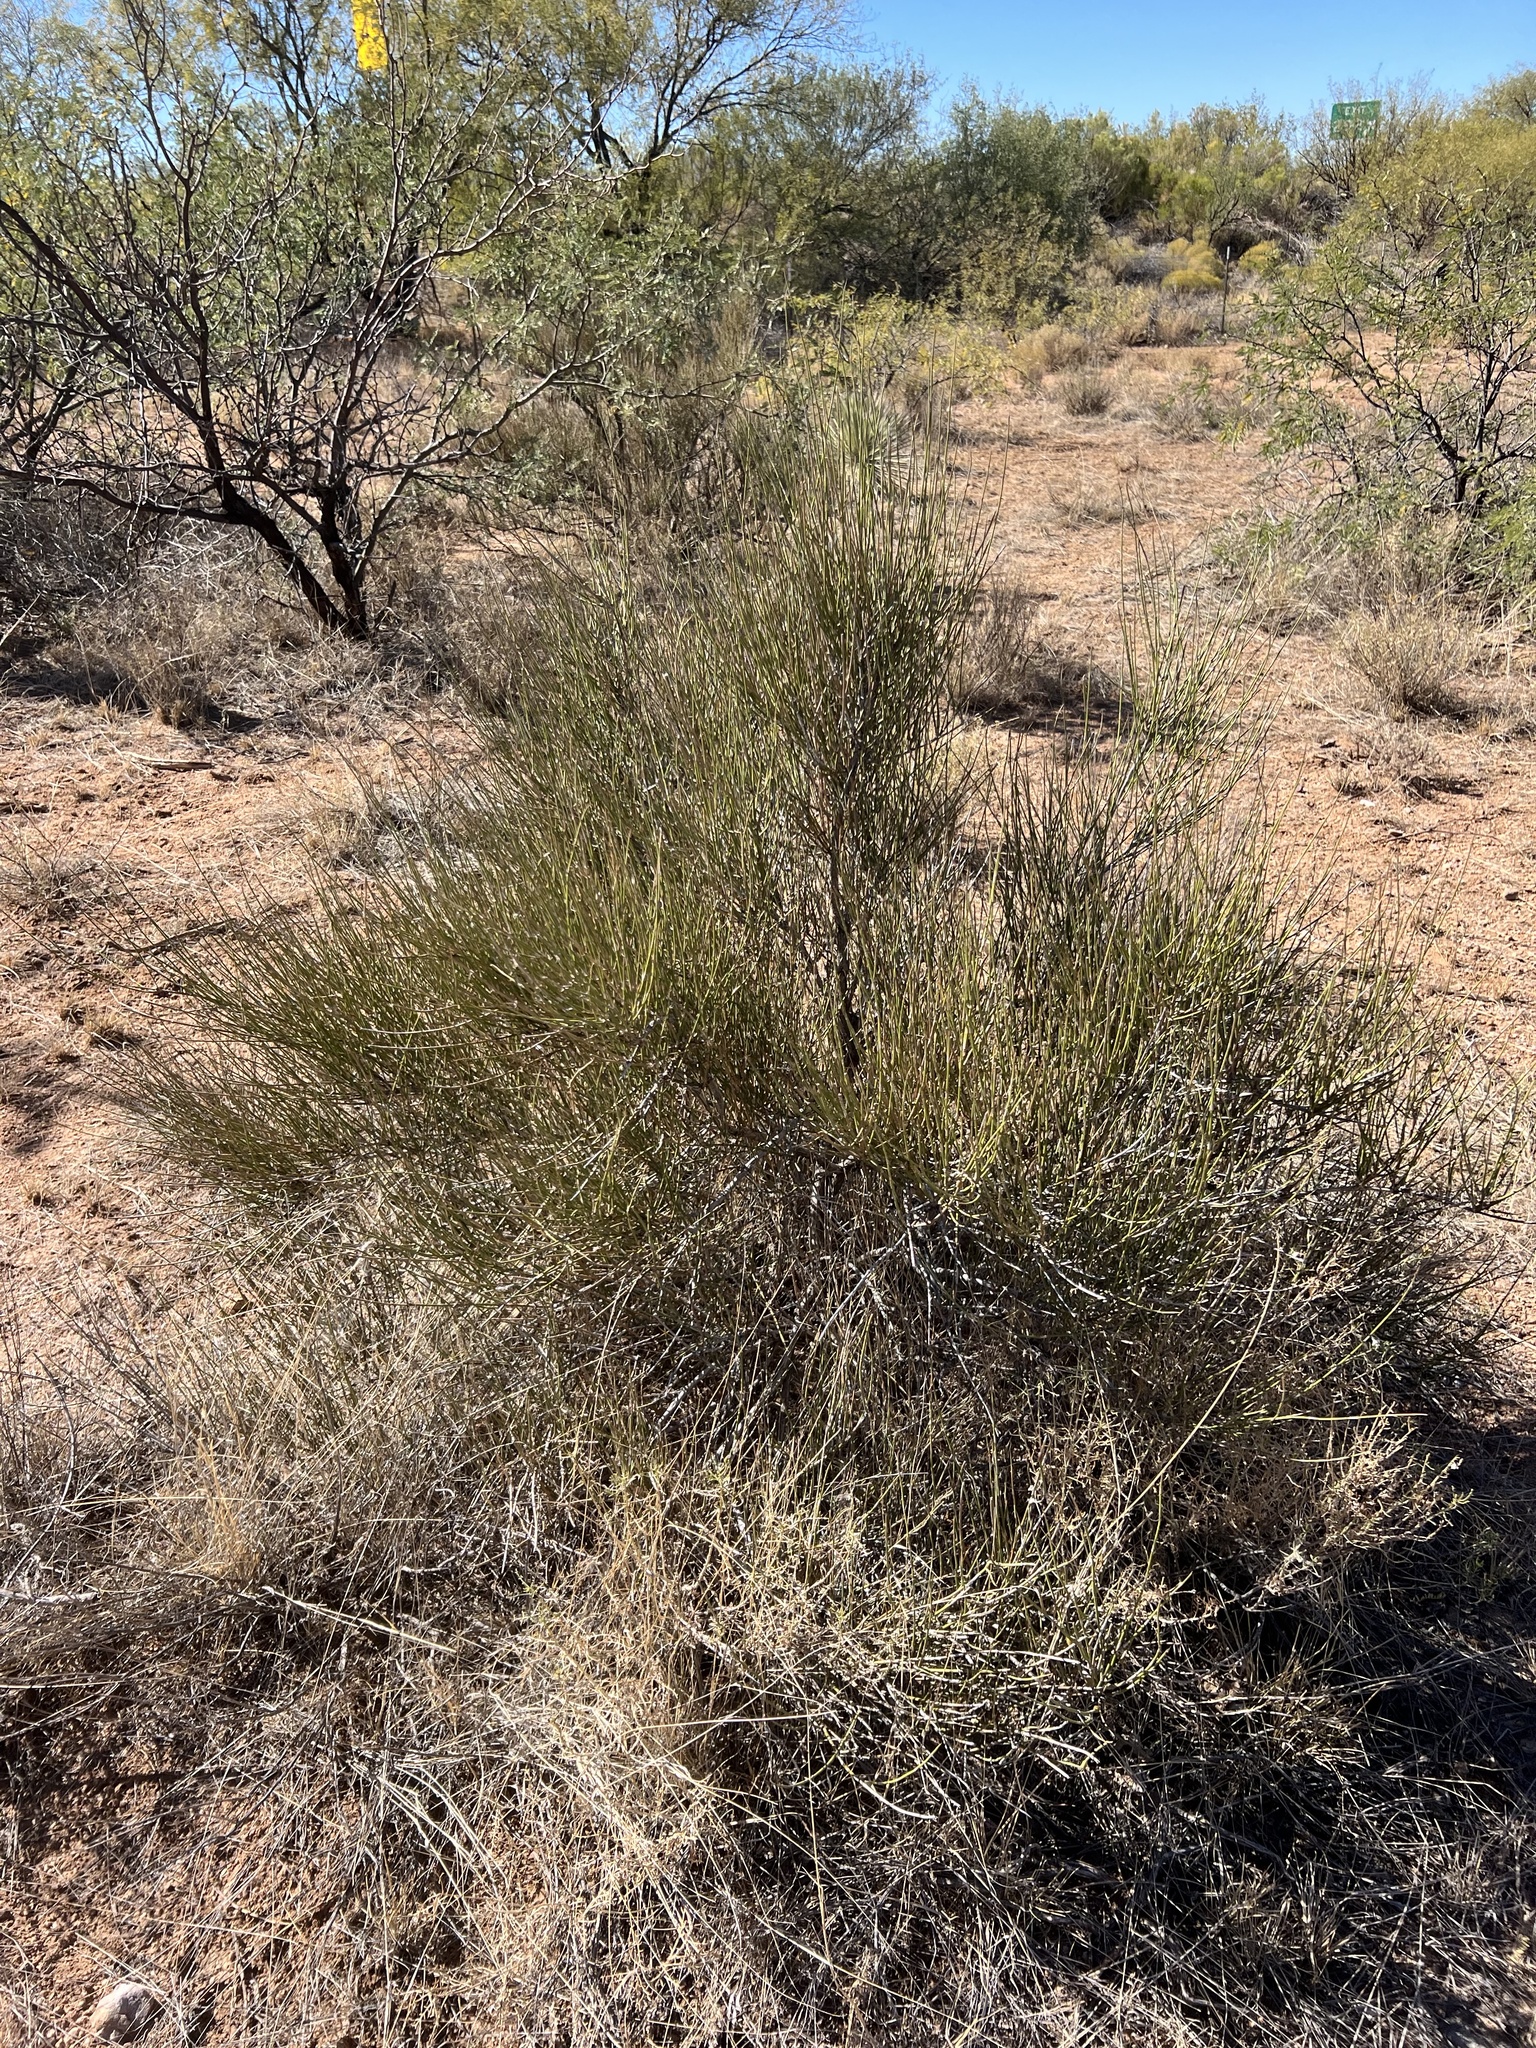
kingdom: Plantae
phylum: Tracheophyta
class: Gnetopsida
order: Ephedrales
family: Ephedraceae
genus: Ephedra
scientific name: Ephedra trifurca
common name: Mexican-tea
